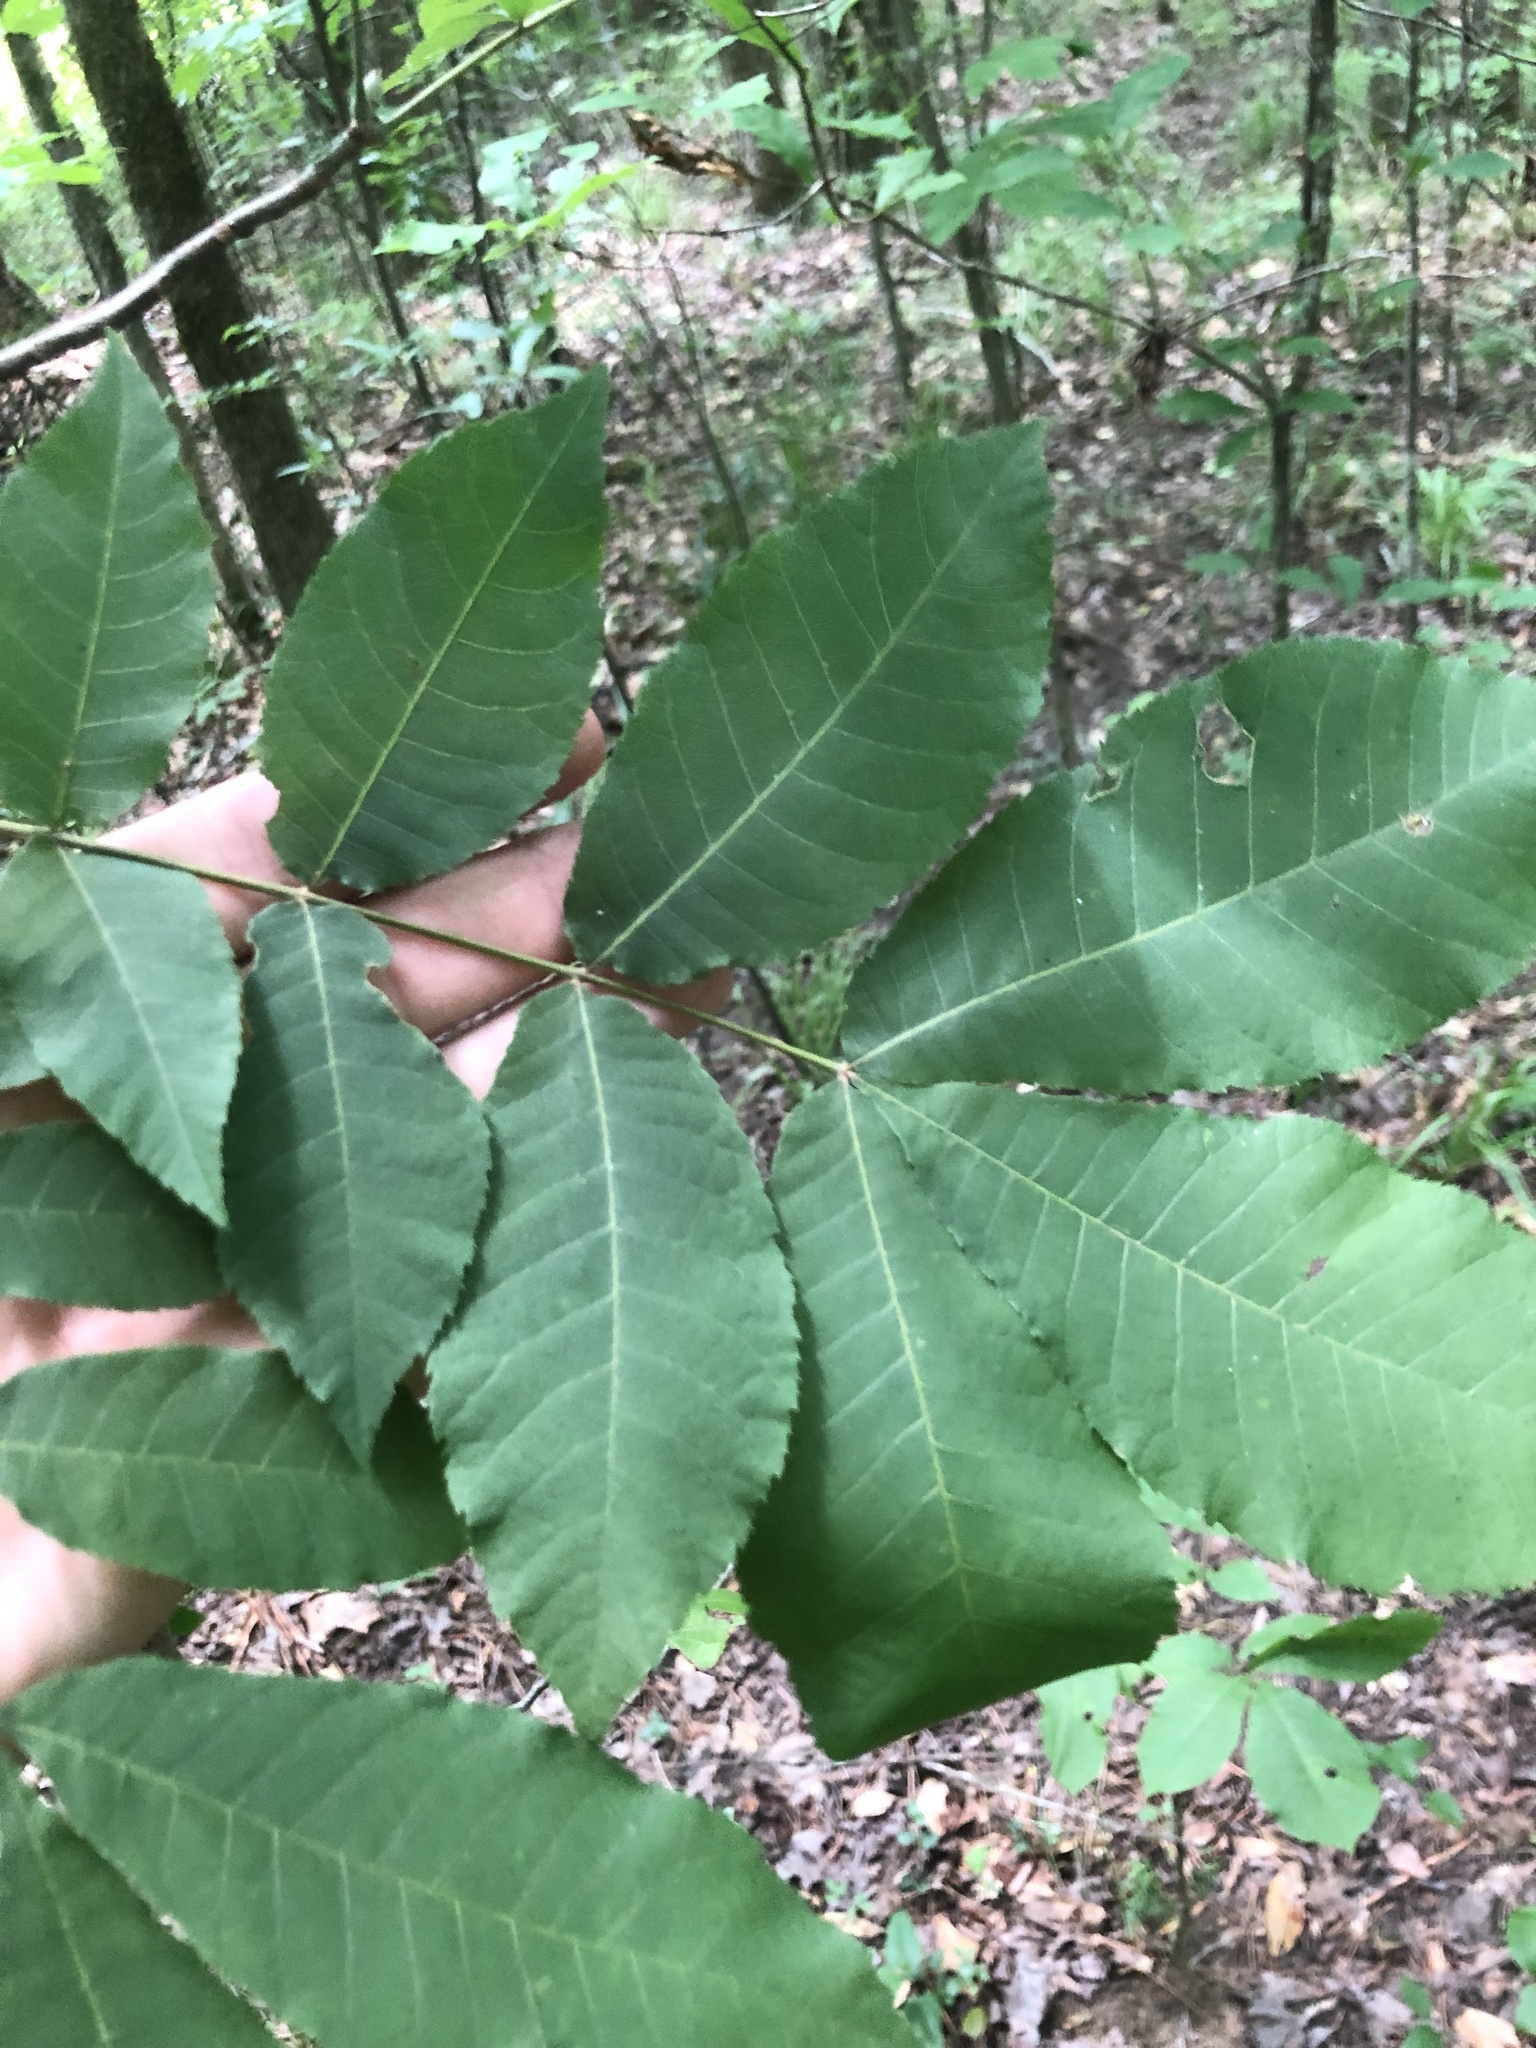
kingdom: Plantae
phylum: Tracheophyta
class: Magnoliopsida
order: Fagales
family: Juglandaceae
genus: Carya
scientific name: Carya myristiciformis
